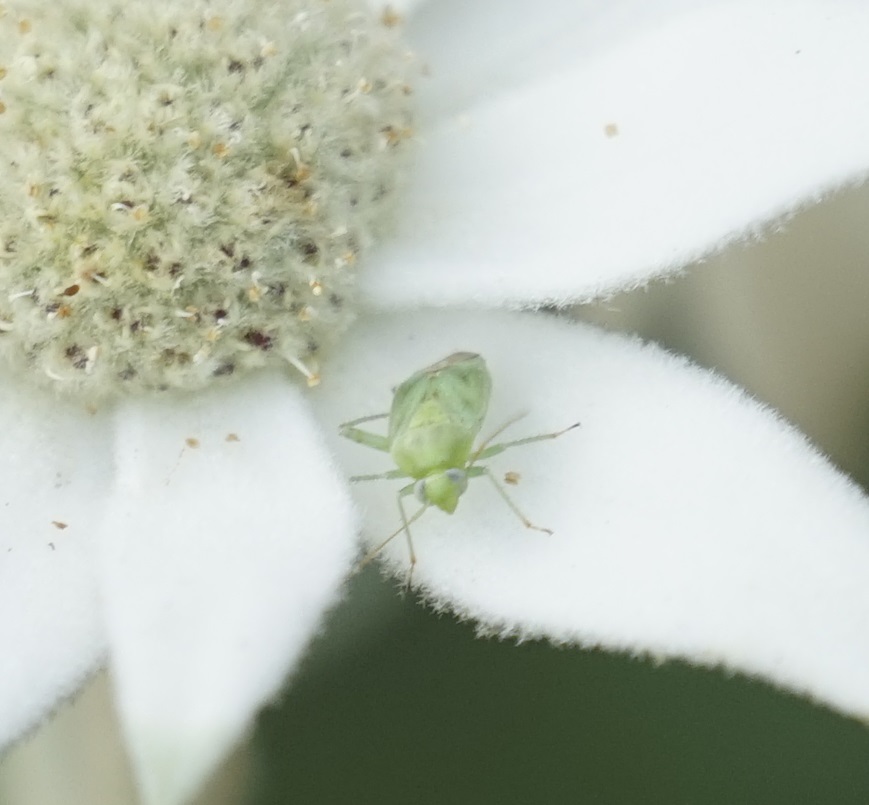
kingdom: Animalia
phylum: Arthropoda
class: Insecta
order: Hemiptera
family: Miridae
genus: Taylorilygus
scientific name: Taylorilygus apicalis
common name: Plant bug
